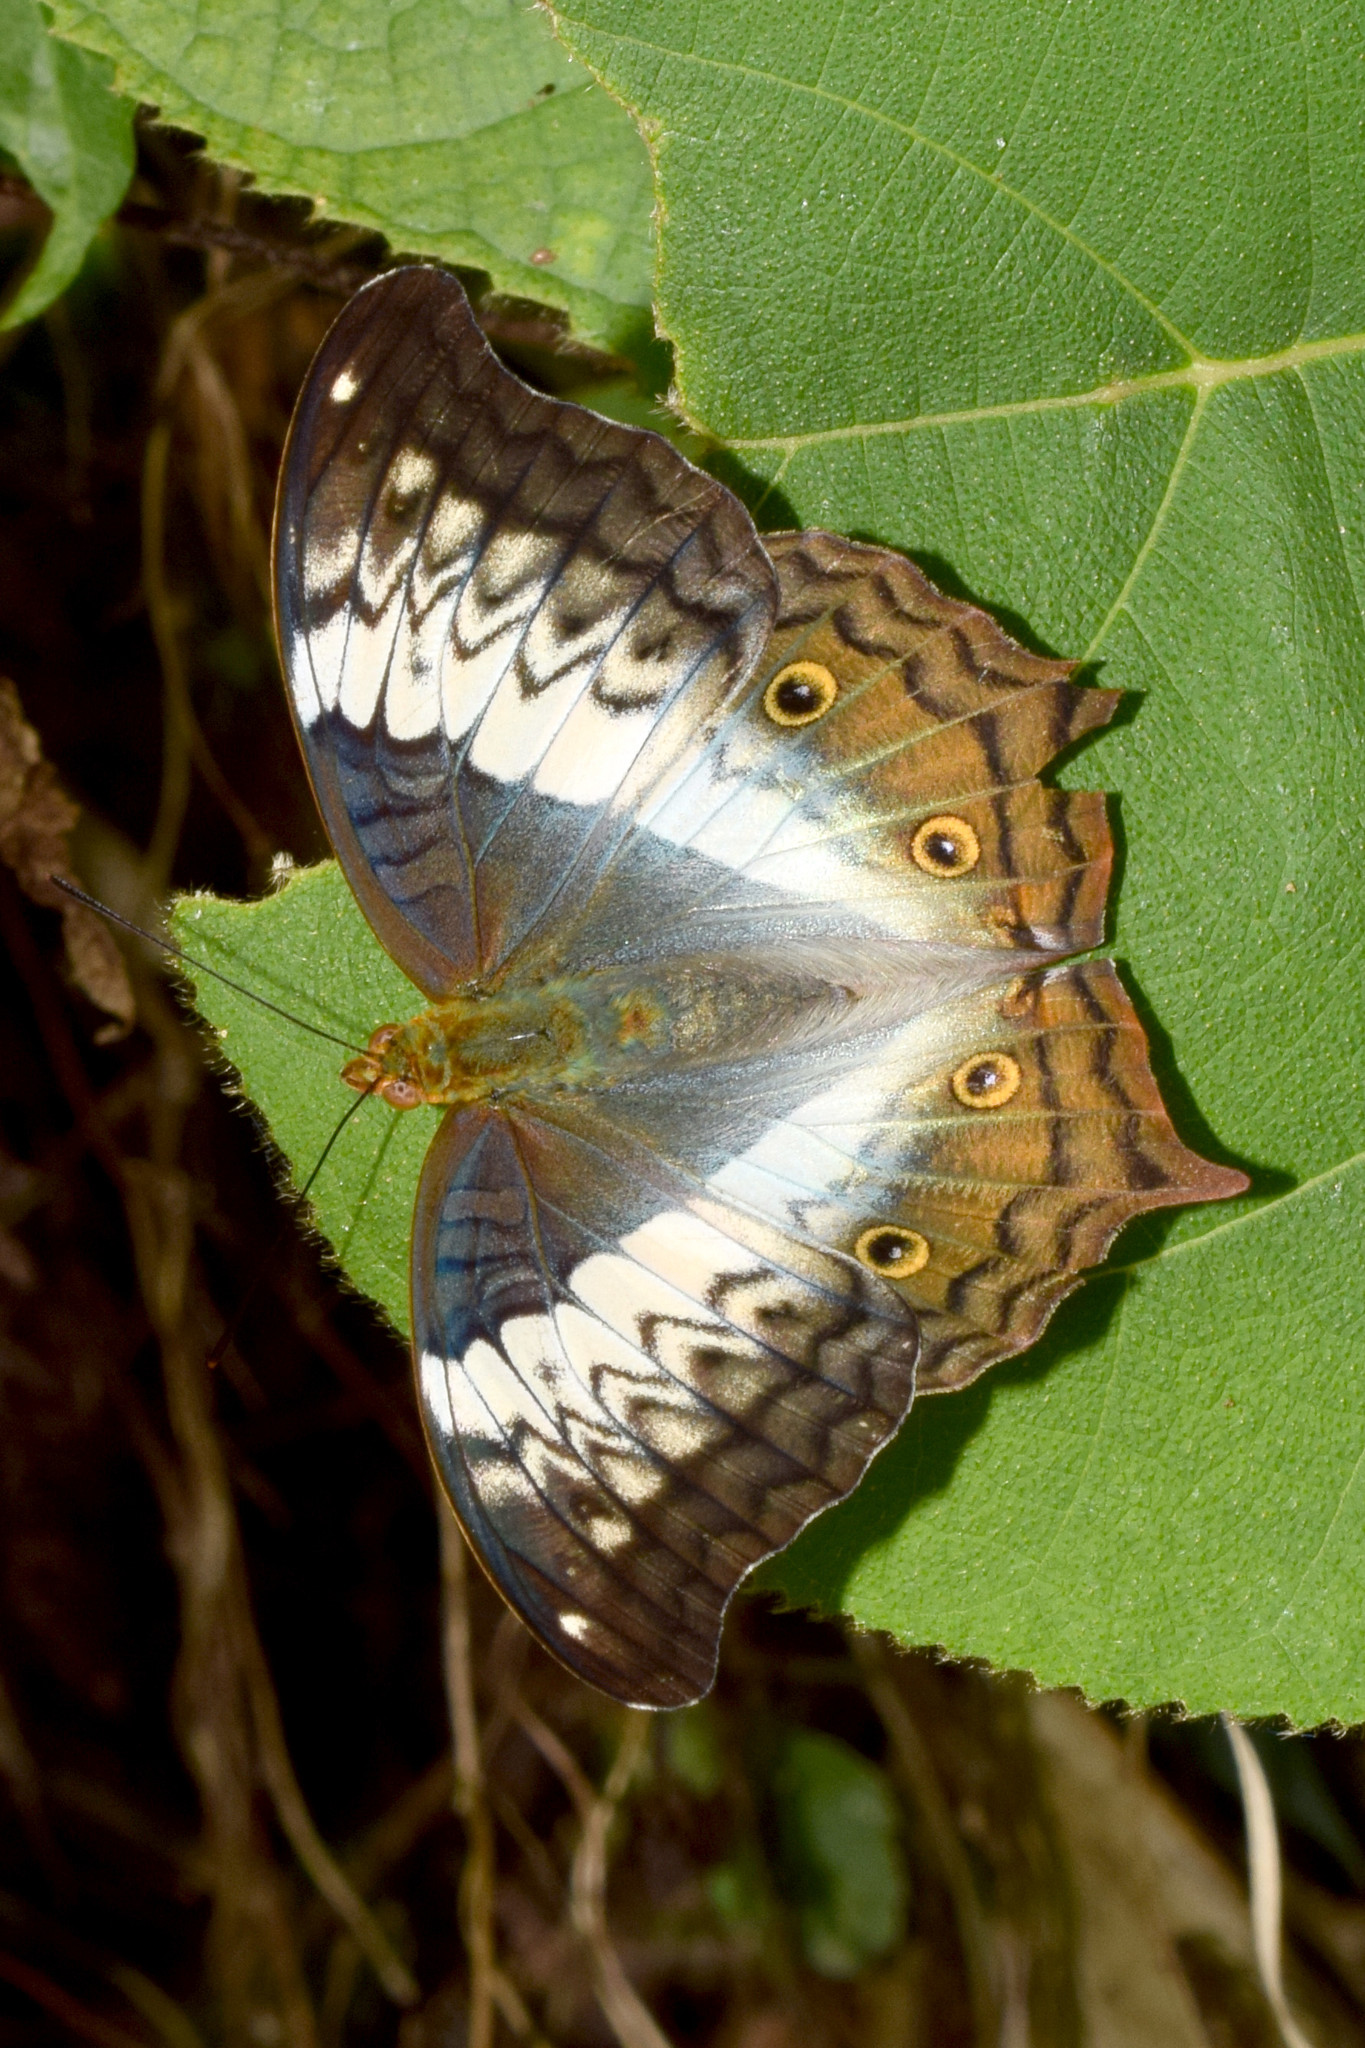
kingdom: Animalia
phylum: Arthropoda
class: Insecta
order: Lepidoptera
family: Nymphalidae
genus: Vindula
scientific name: Vindula erota
